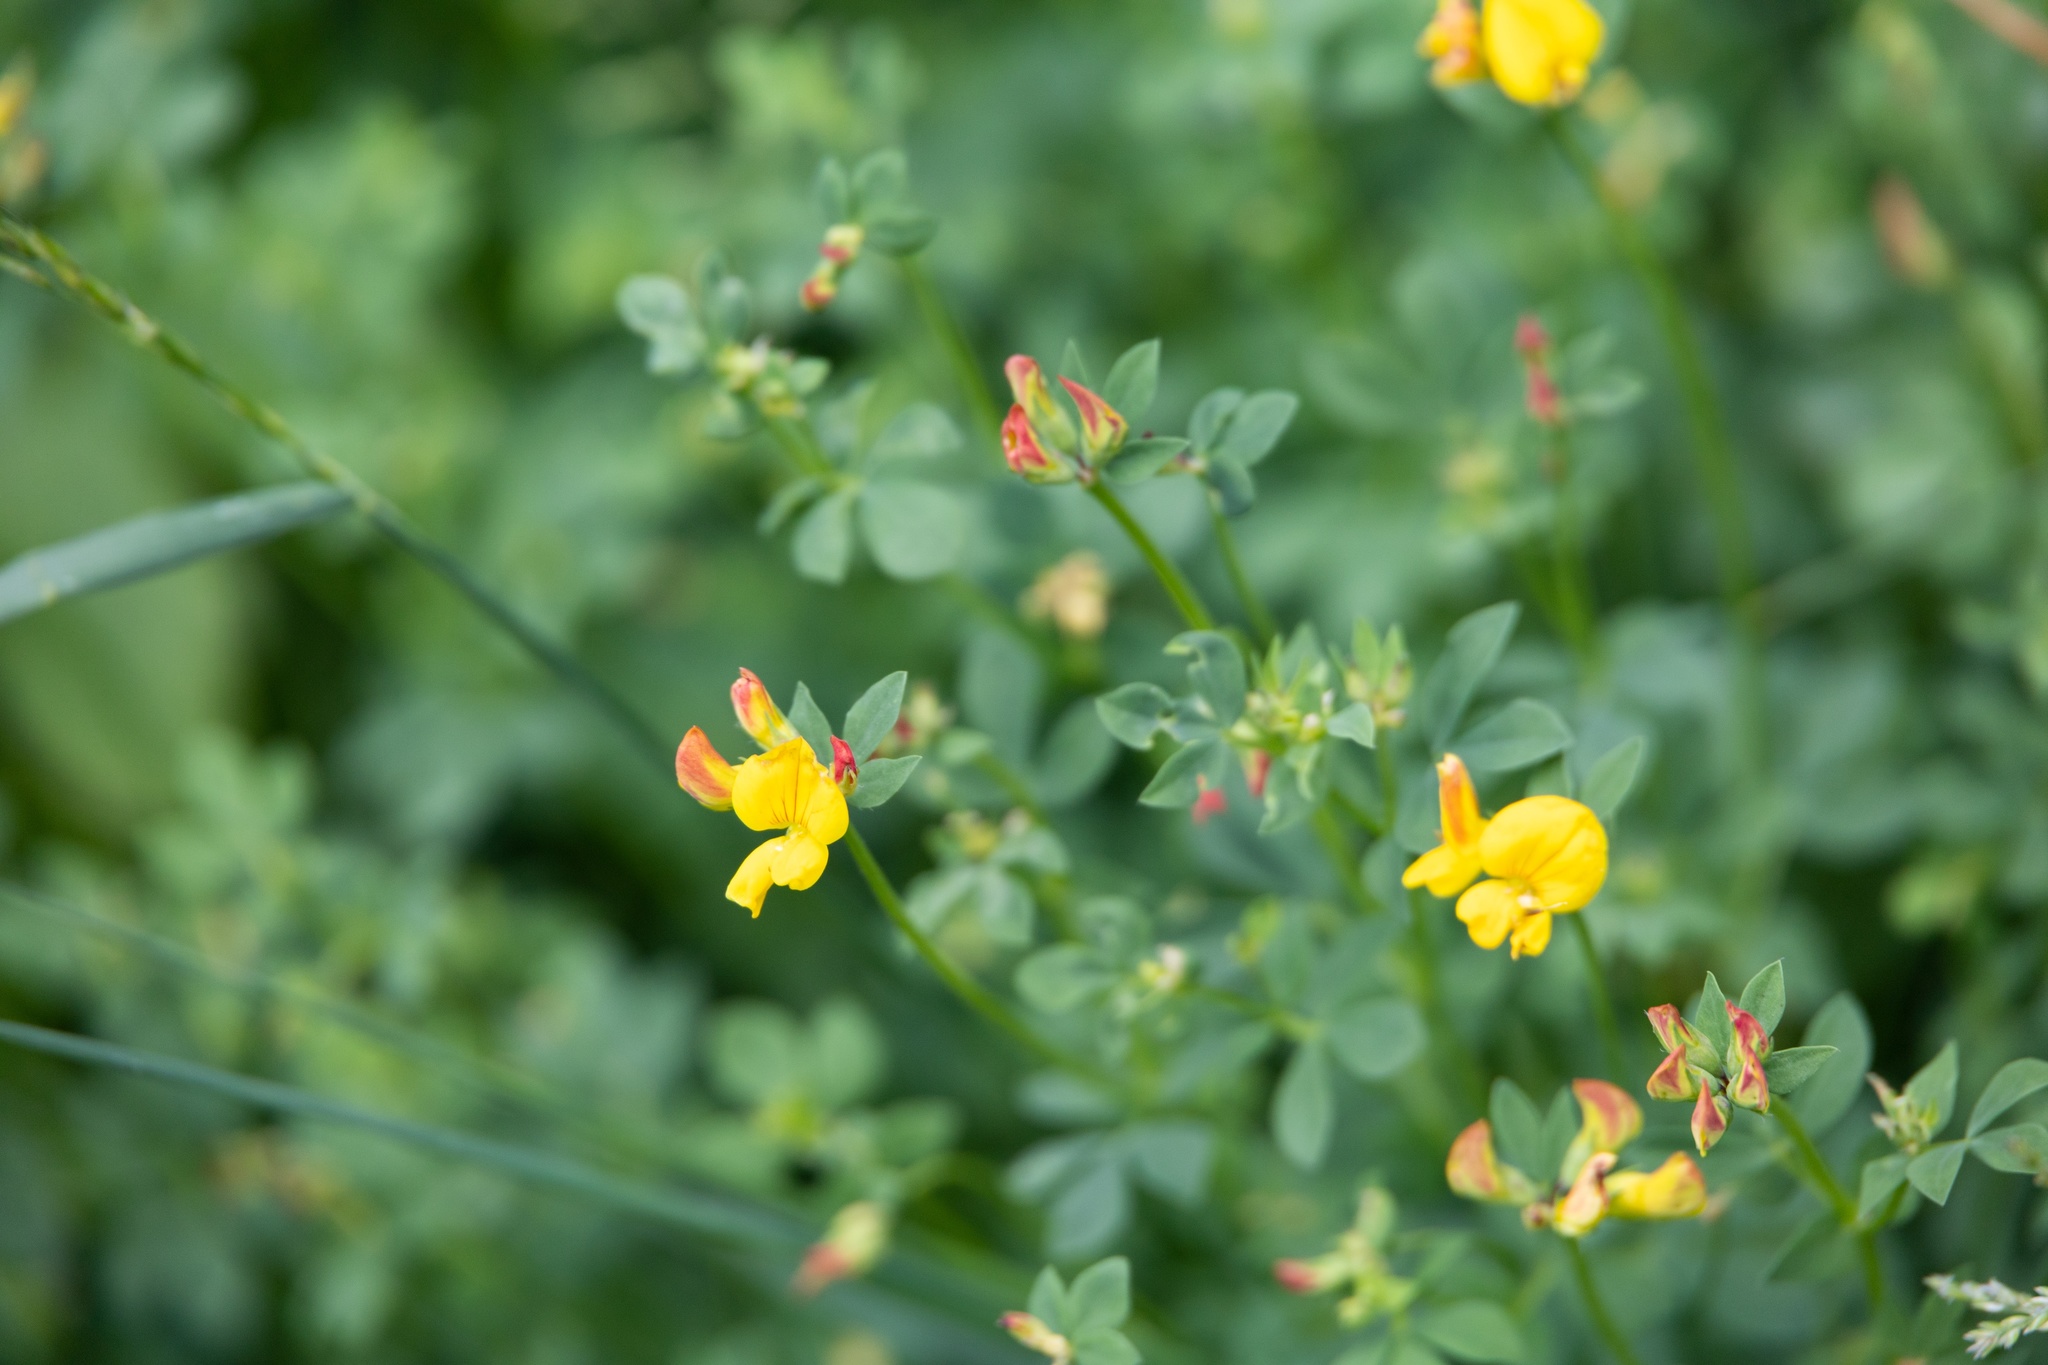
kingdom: Plantae
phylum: Tracheophyta
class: Magnoliopsida
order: Fabales
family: Fabaceae
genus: Lotus
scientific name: Lotus corniculatus
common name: Common bird's-foot-trefoil
